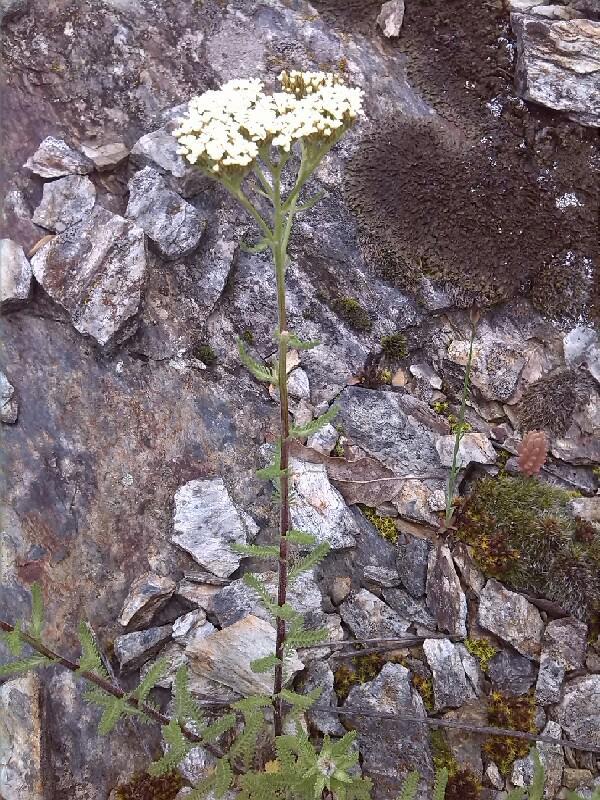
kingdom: Plantae
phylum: Tracheophyta
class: Magnoliopsida
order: Asterales
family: Asteraceae
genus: Achillea
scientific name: Achillea millefolium
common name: Yarrow
